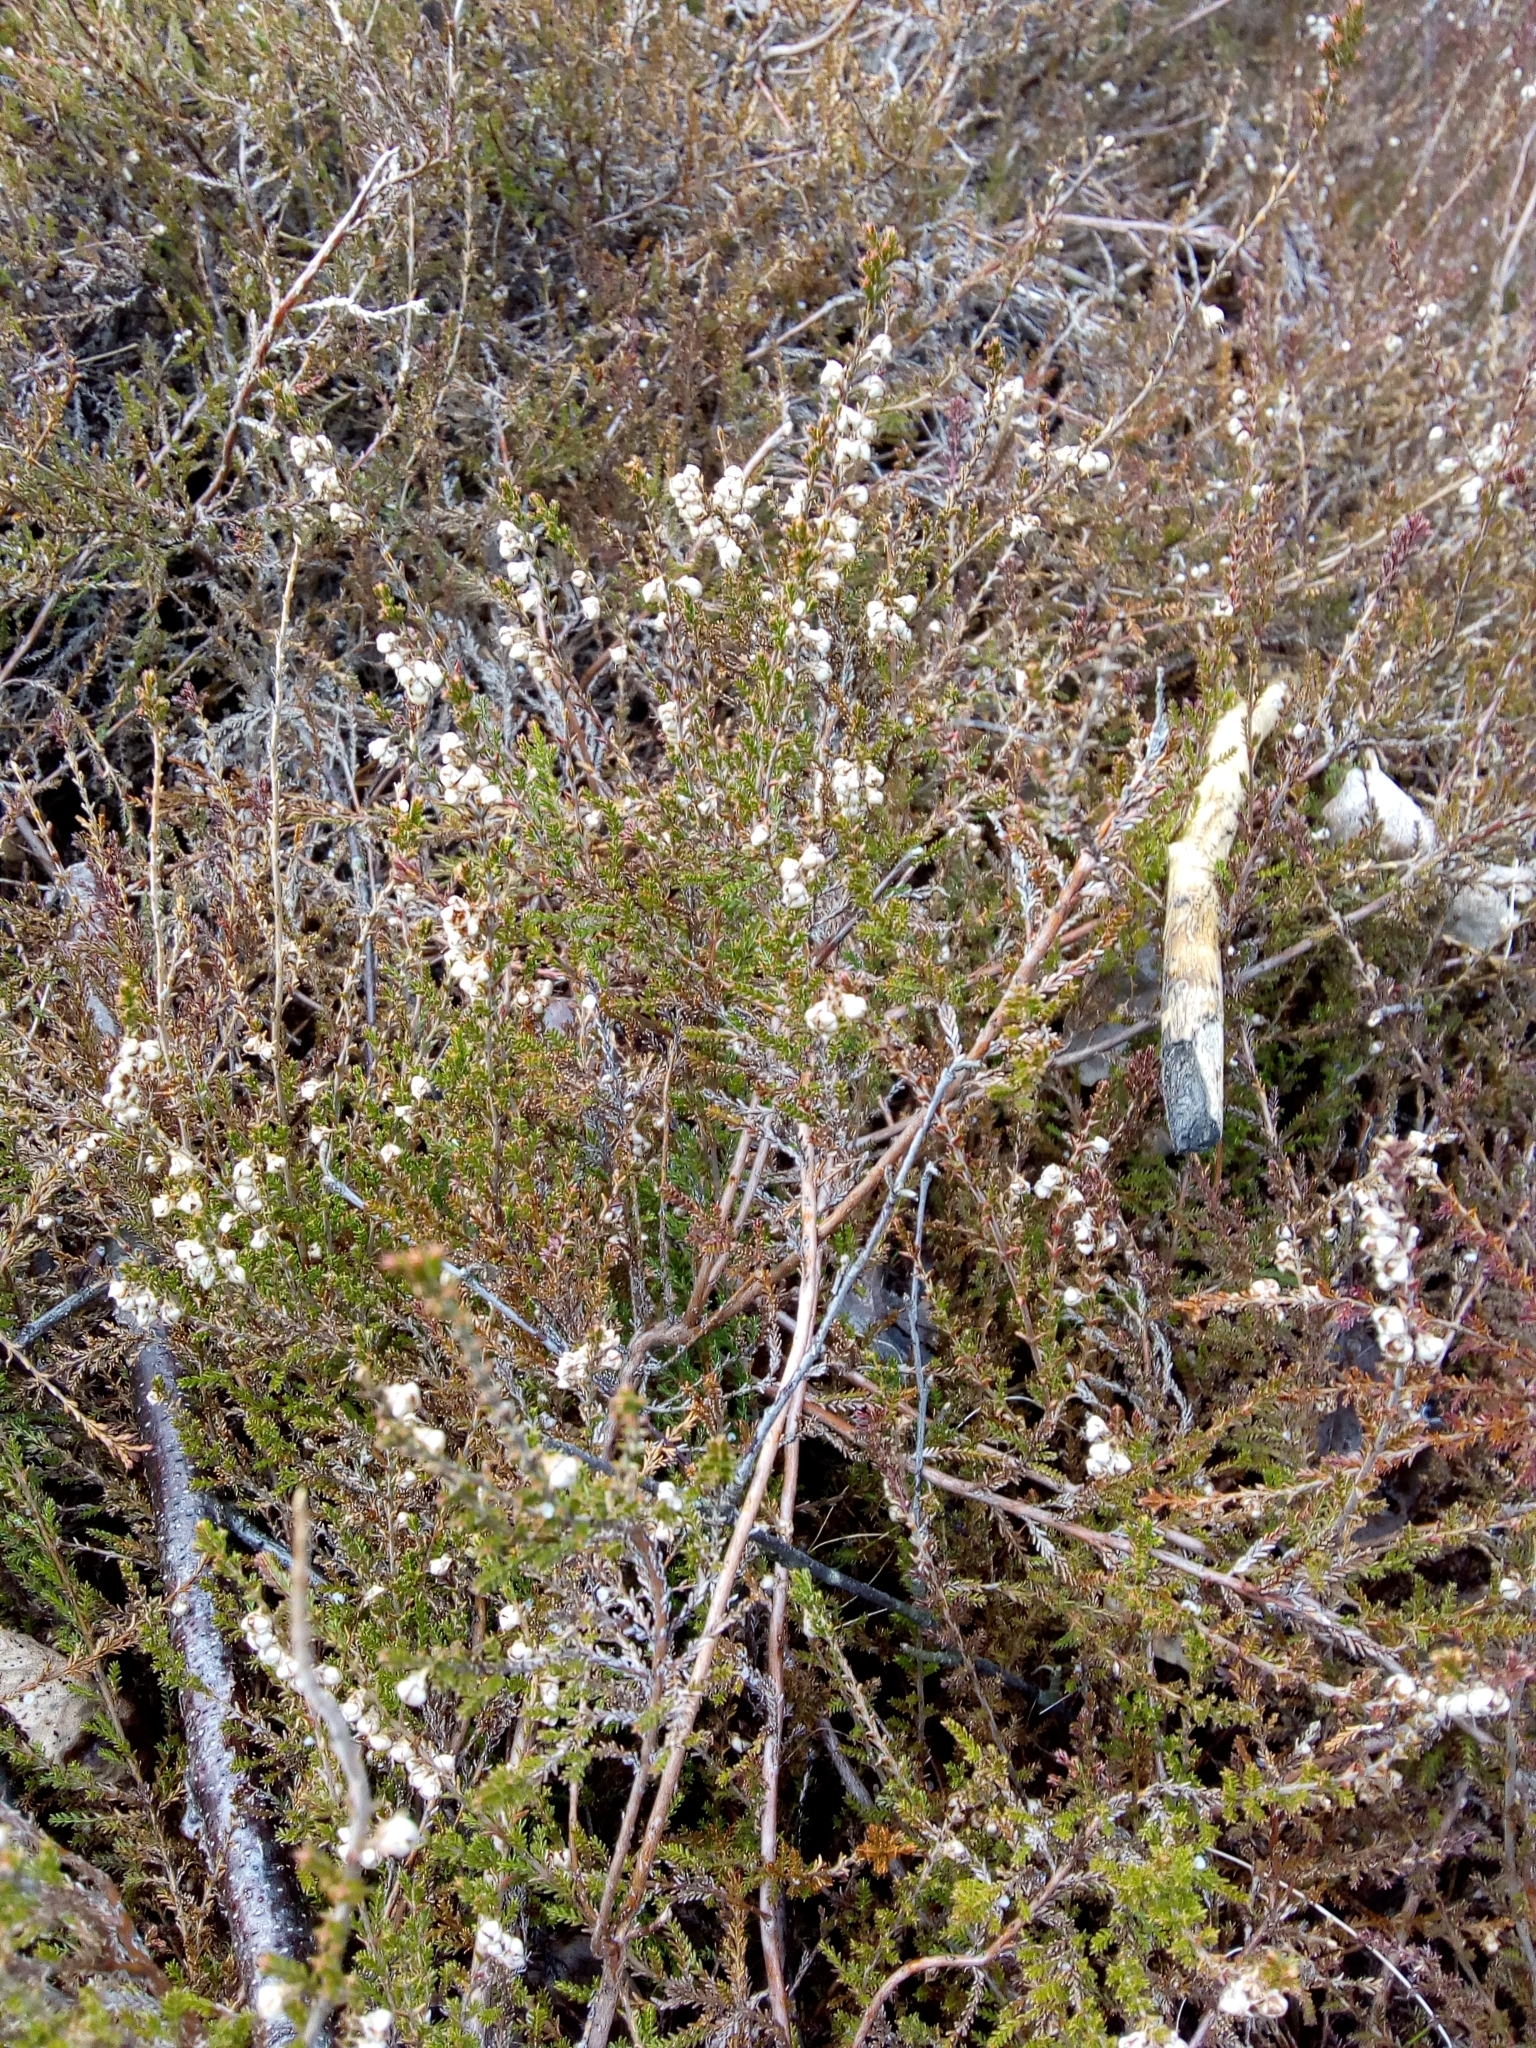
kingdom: Plantae
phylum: Tracheophyta
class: Magnoliopsida
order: Ericales
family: Ericaceae
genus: Calluna
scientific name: Calluna vulgaris
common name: Heather
